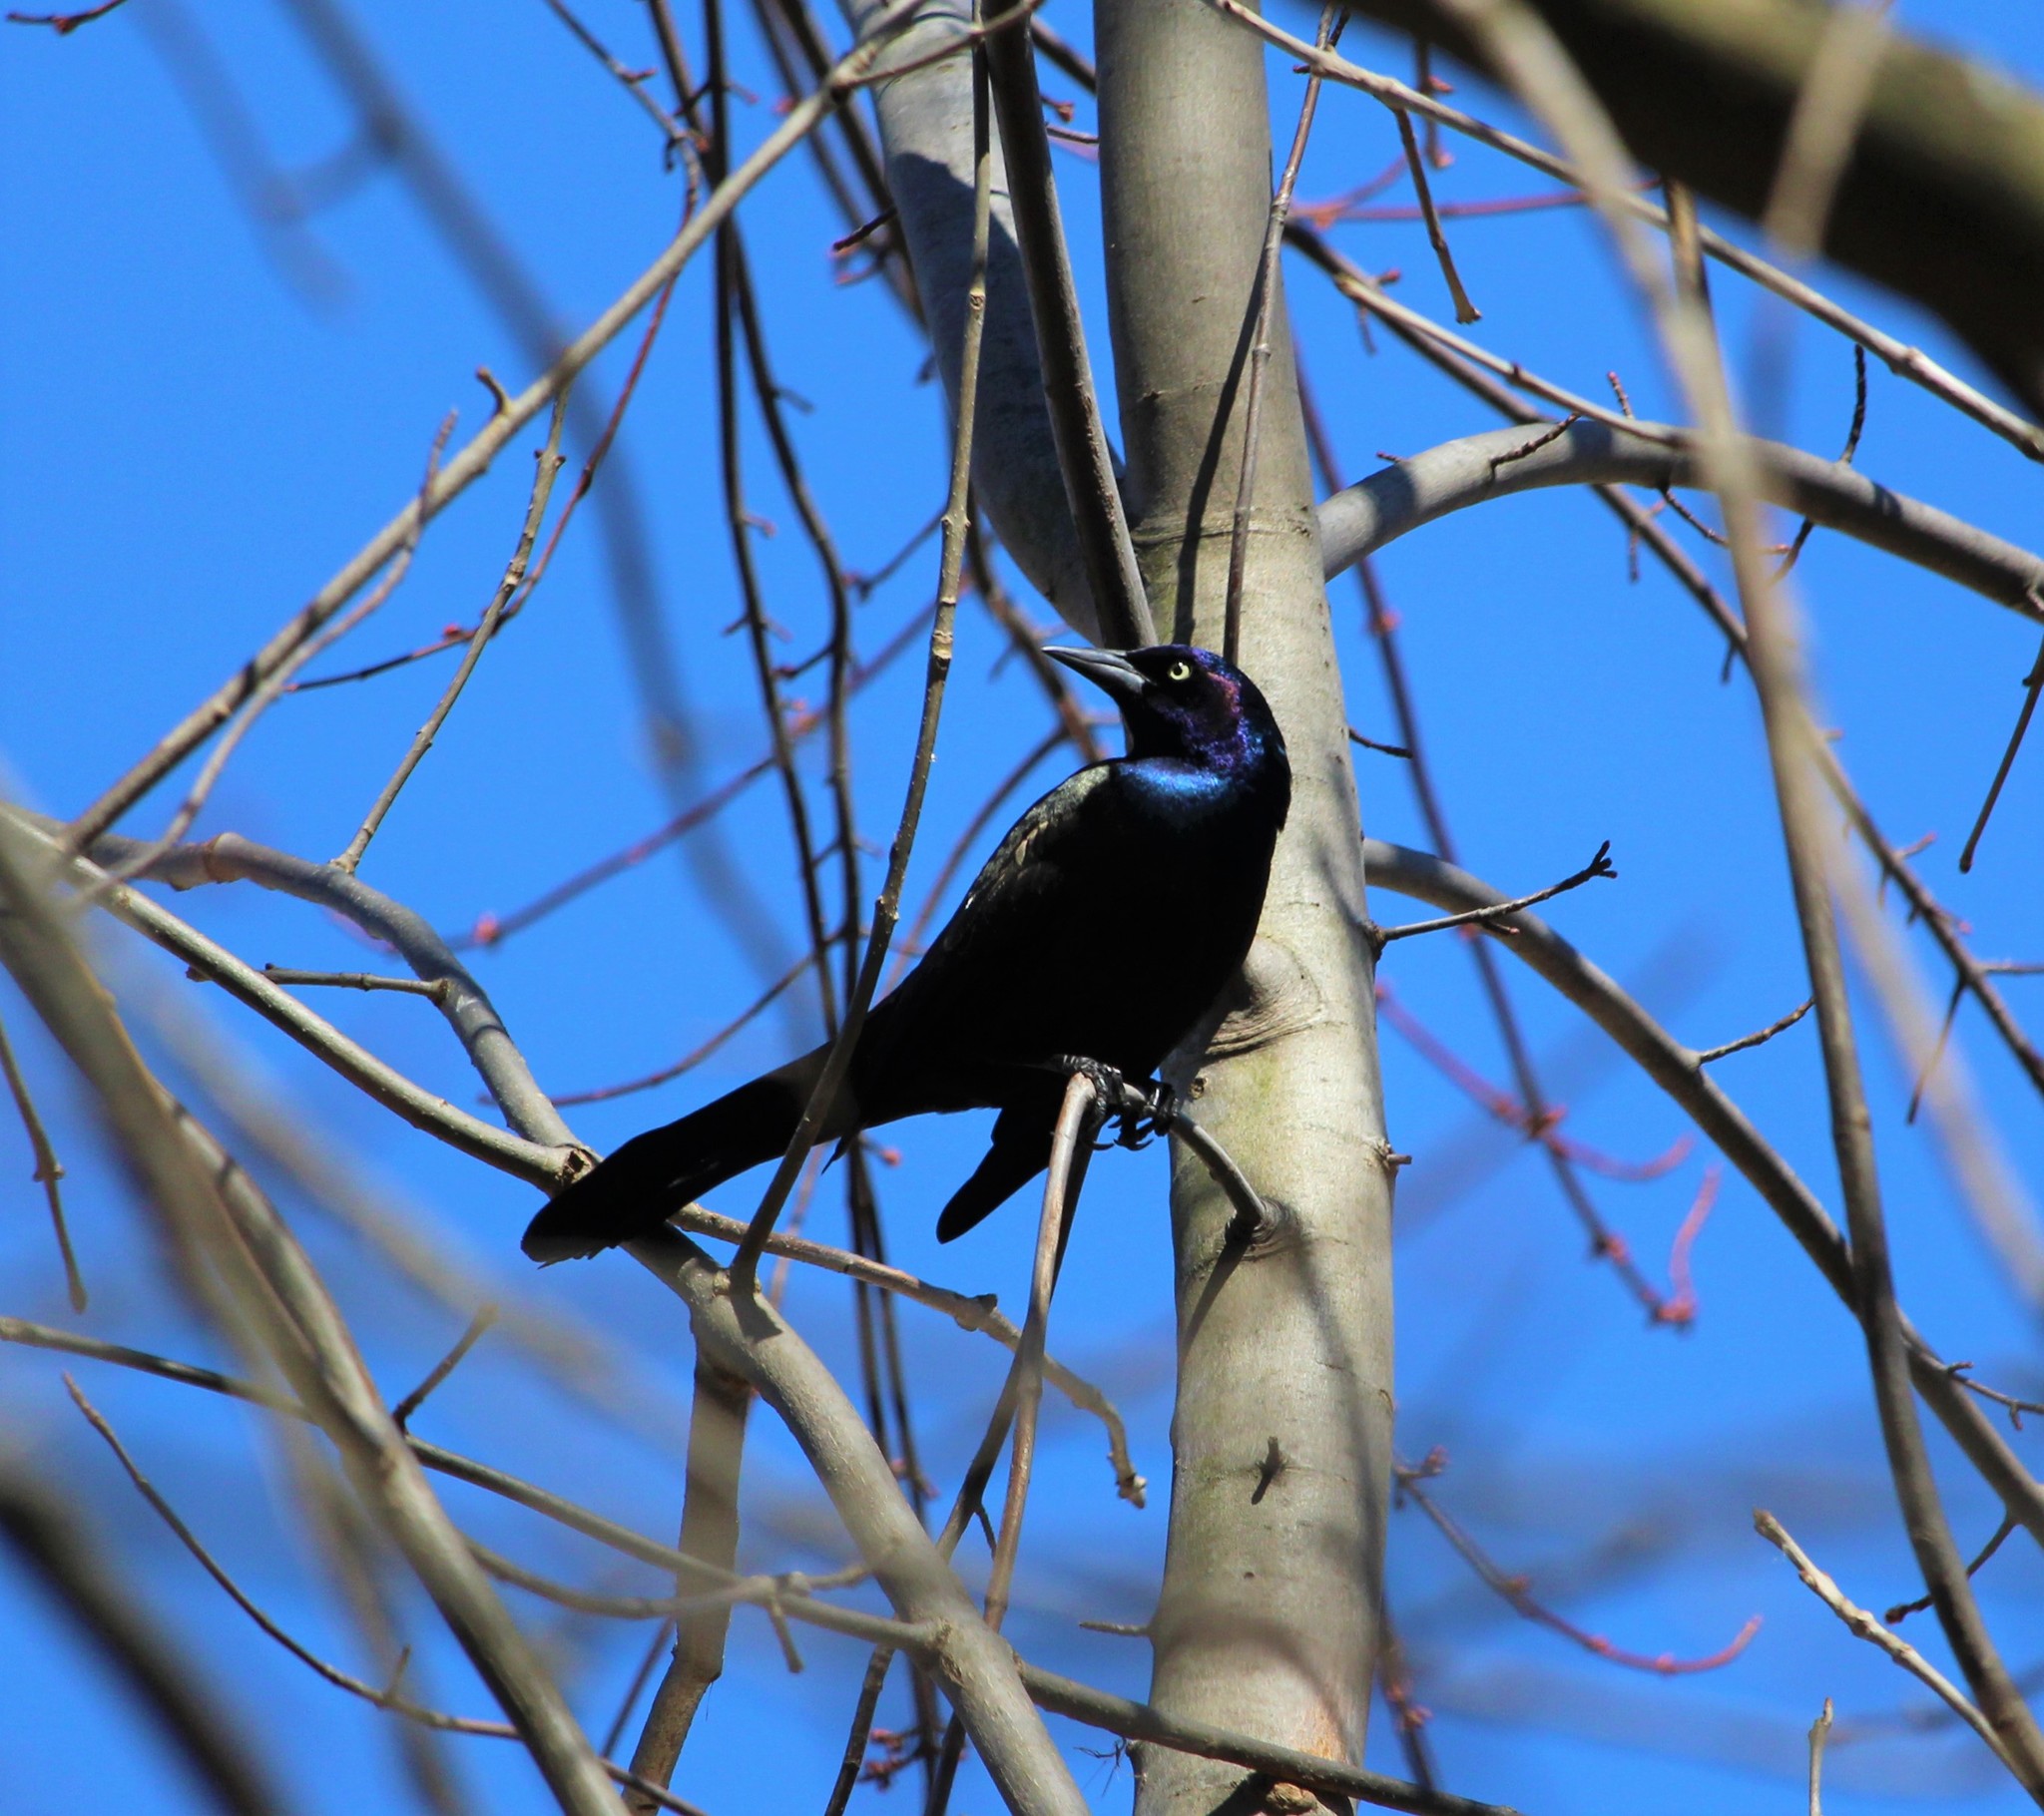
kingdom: Animalia
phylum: Chordata
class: Aves
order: Passeriformes
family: Icteridae
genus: Quiscalus
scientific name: Quiscalus quiscula
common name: Common grackle
